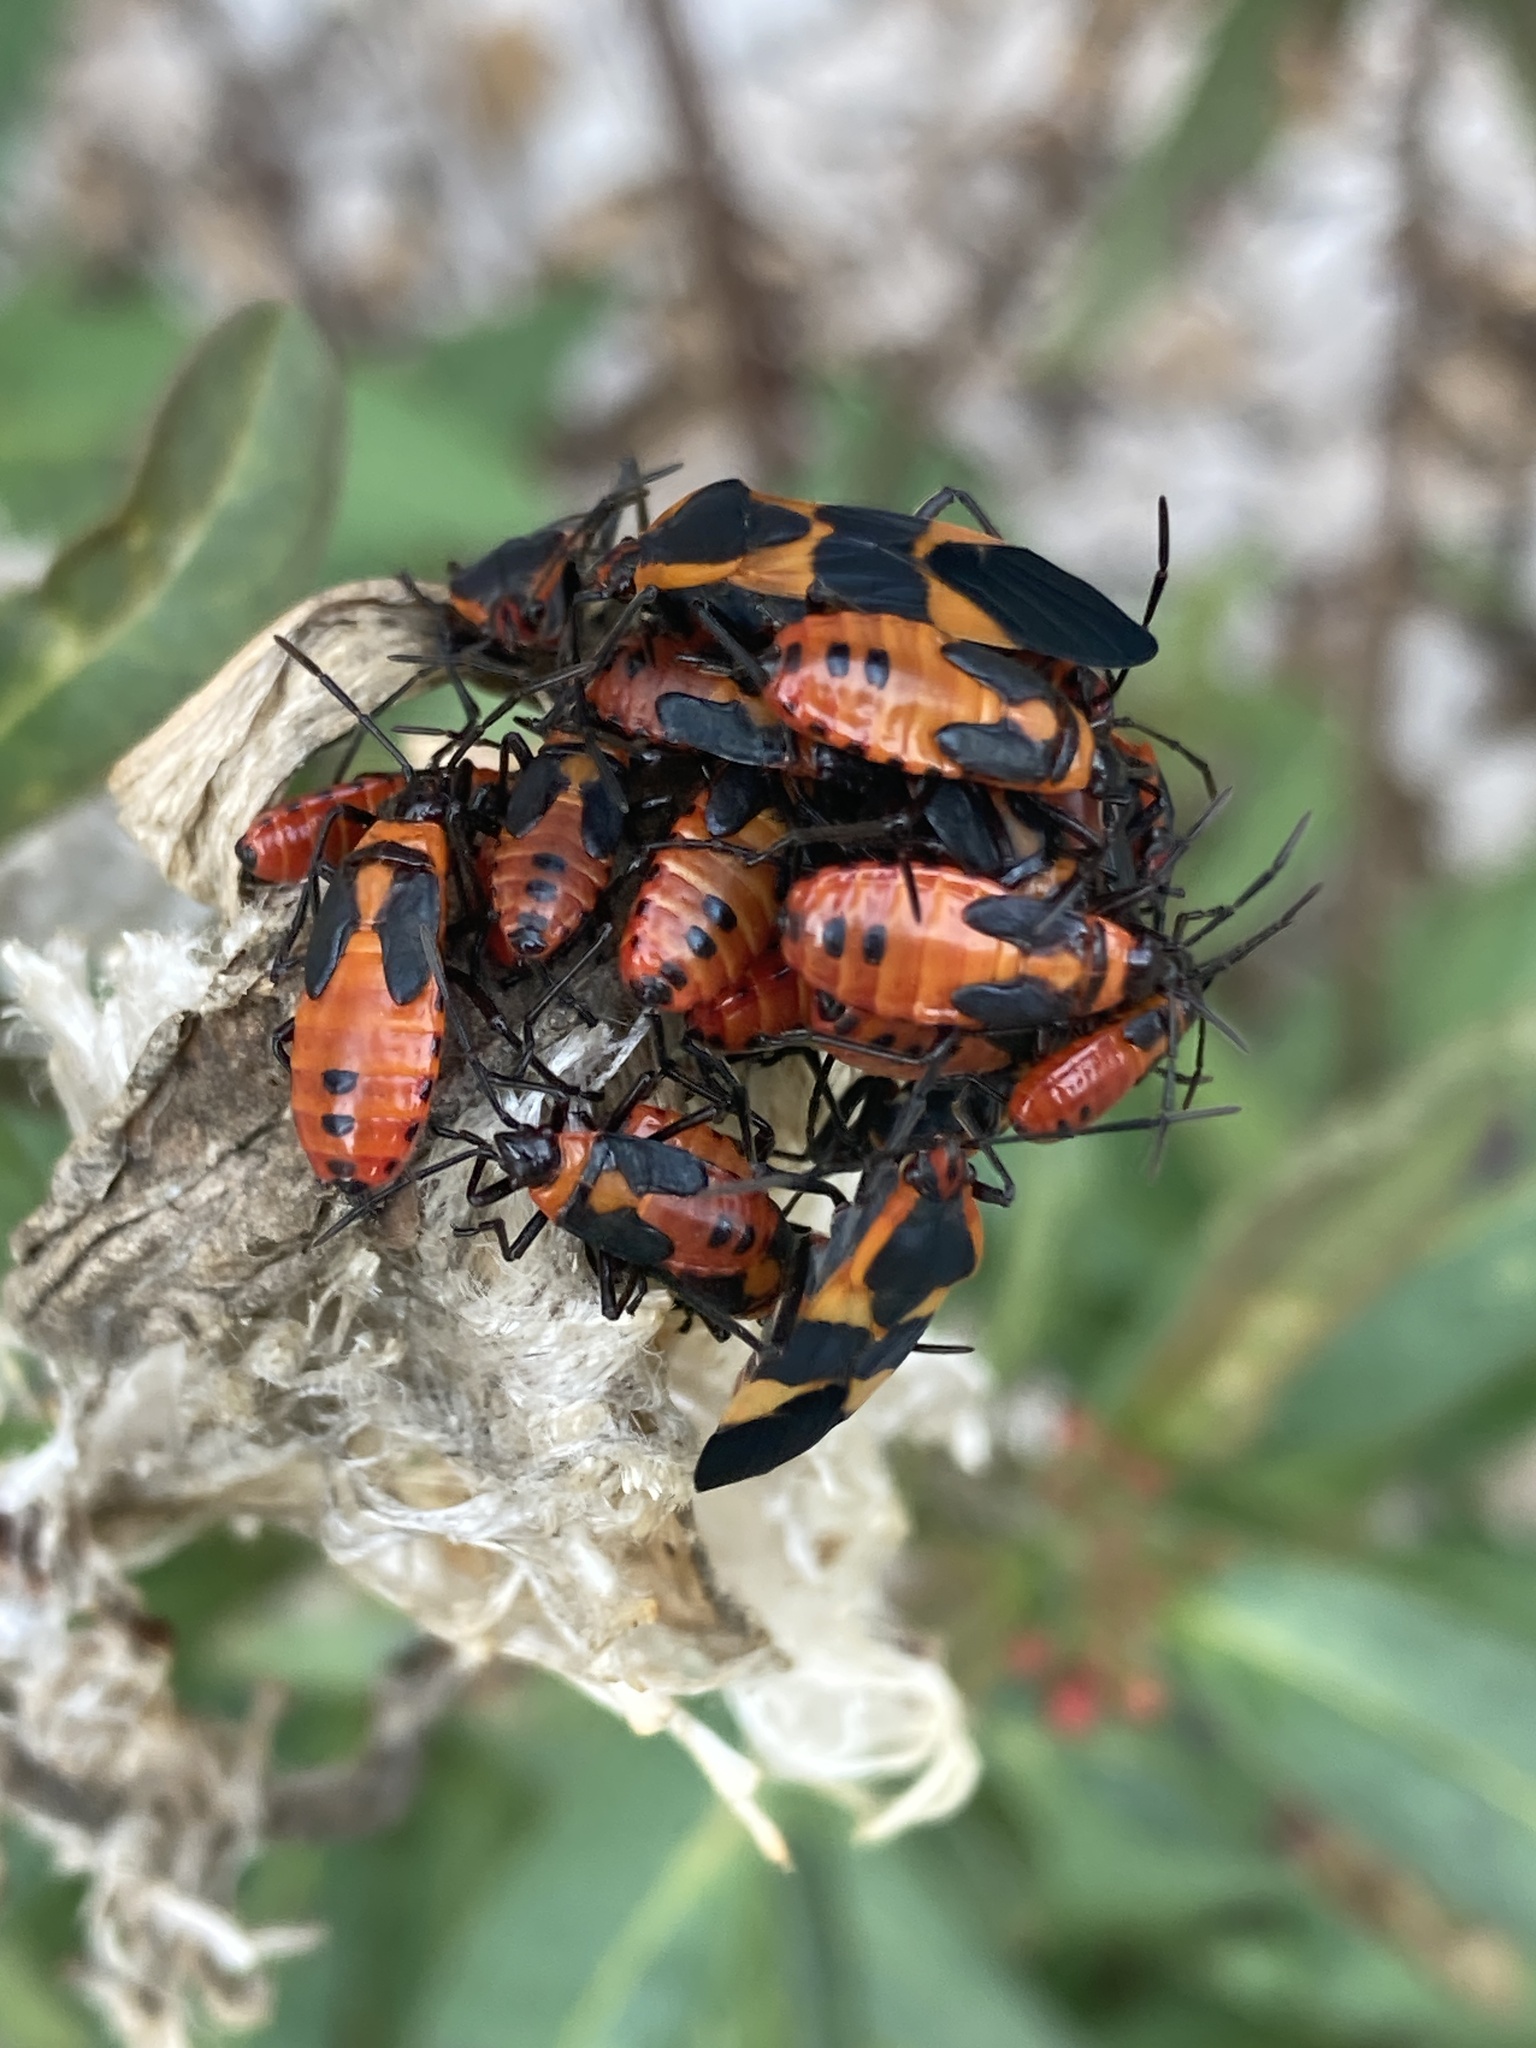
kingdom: Animalia
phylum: Arthropoda
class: Insecta
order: Hemiptera
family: Lygaeidae
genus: Oncopeltus
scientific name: Oncopeltus fasciatus
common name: Large milkweed bug
